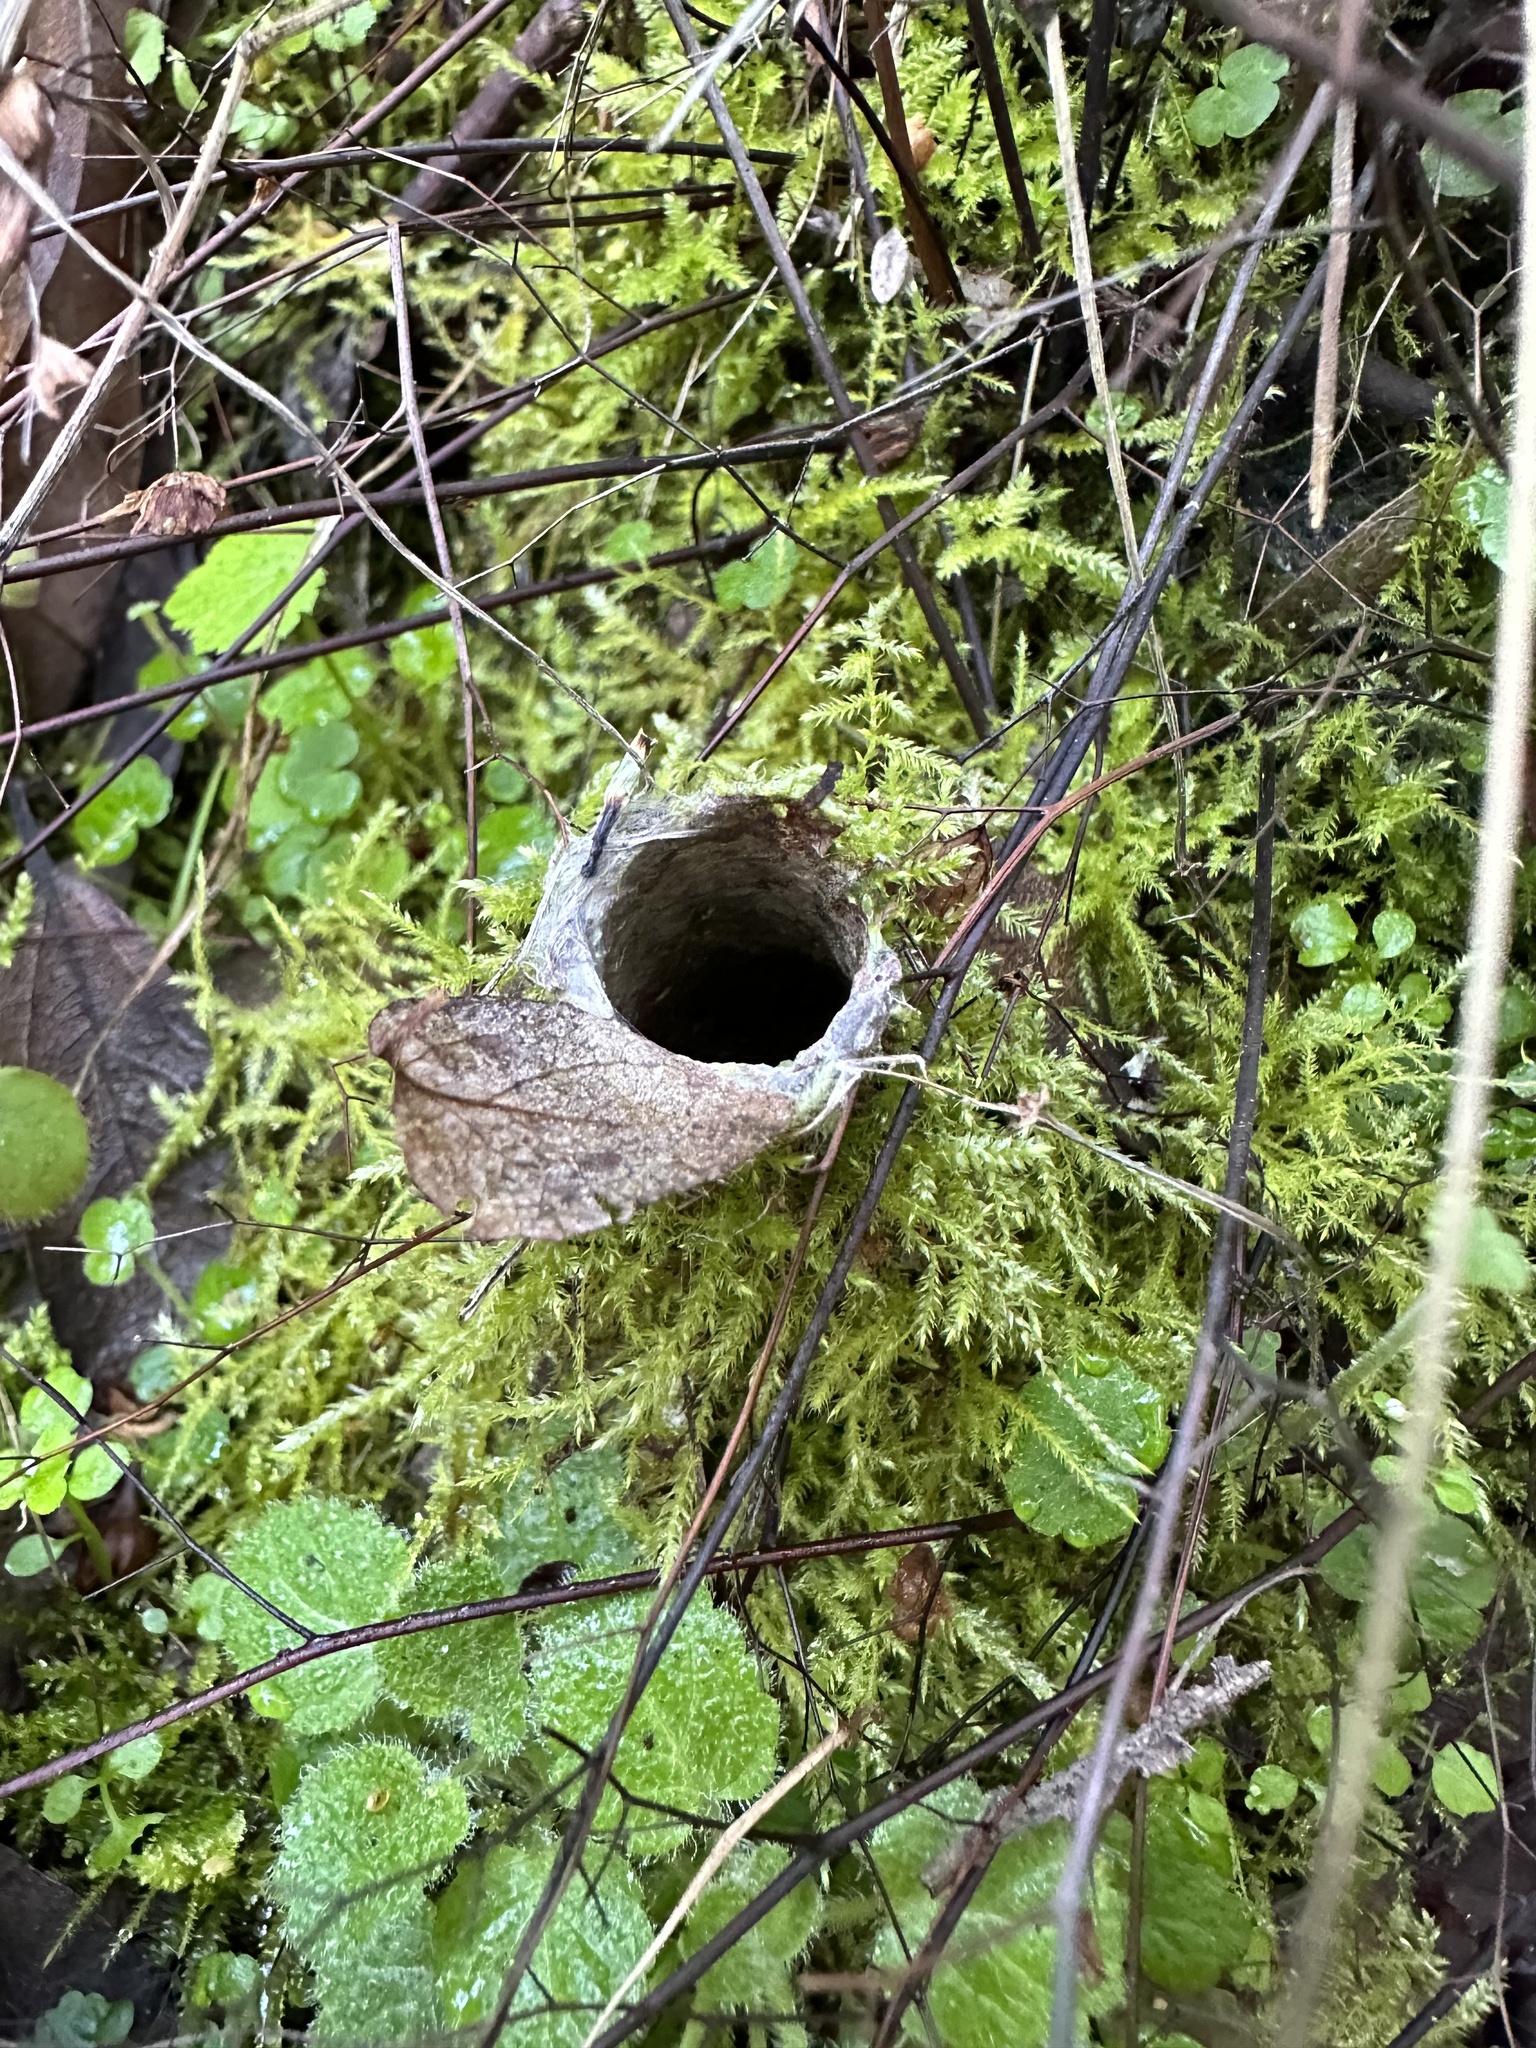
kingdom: Animalia
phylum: Arthropoda
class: Arachnida
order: Araneae
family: Antrodiaetidae
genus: Atypoides
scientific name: Atypoides riversi
